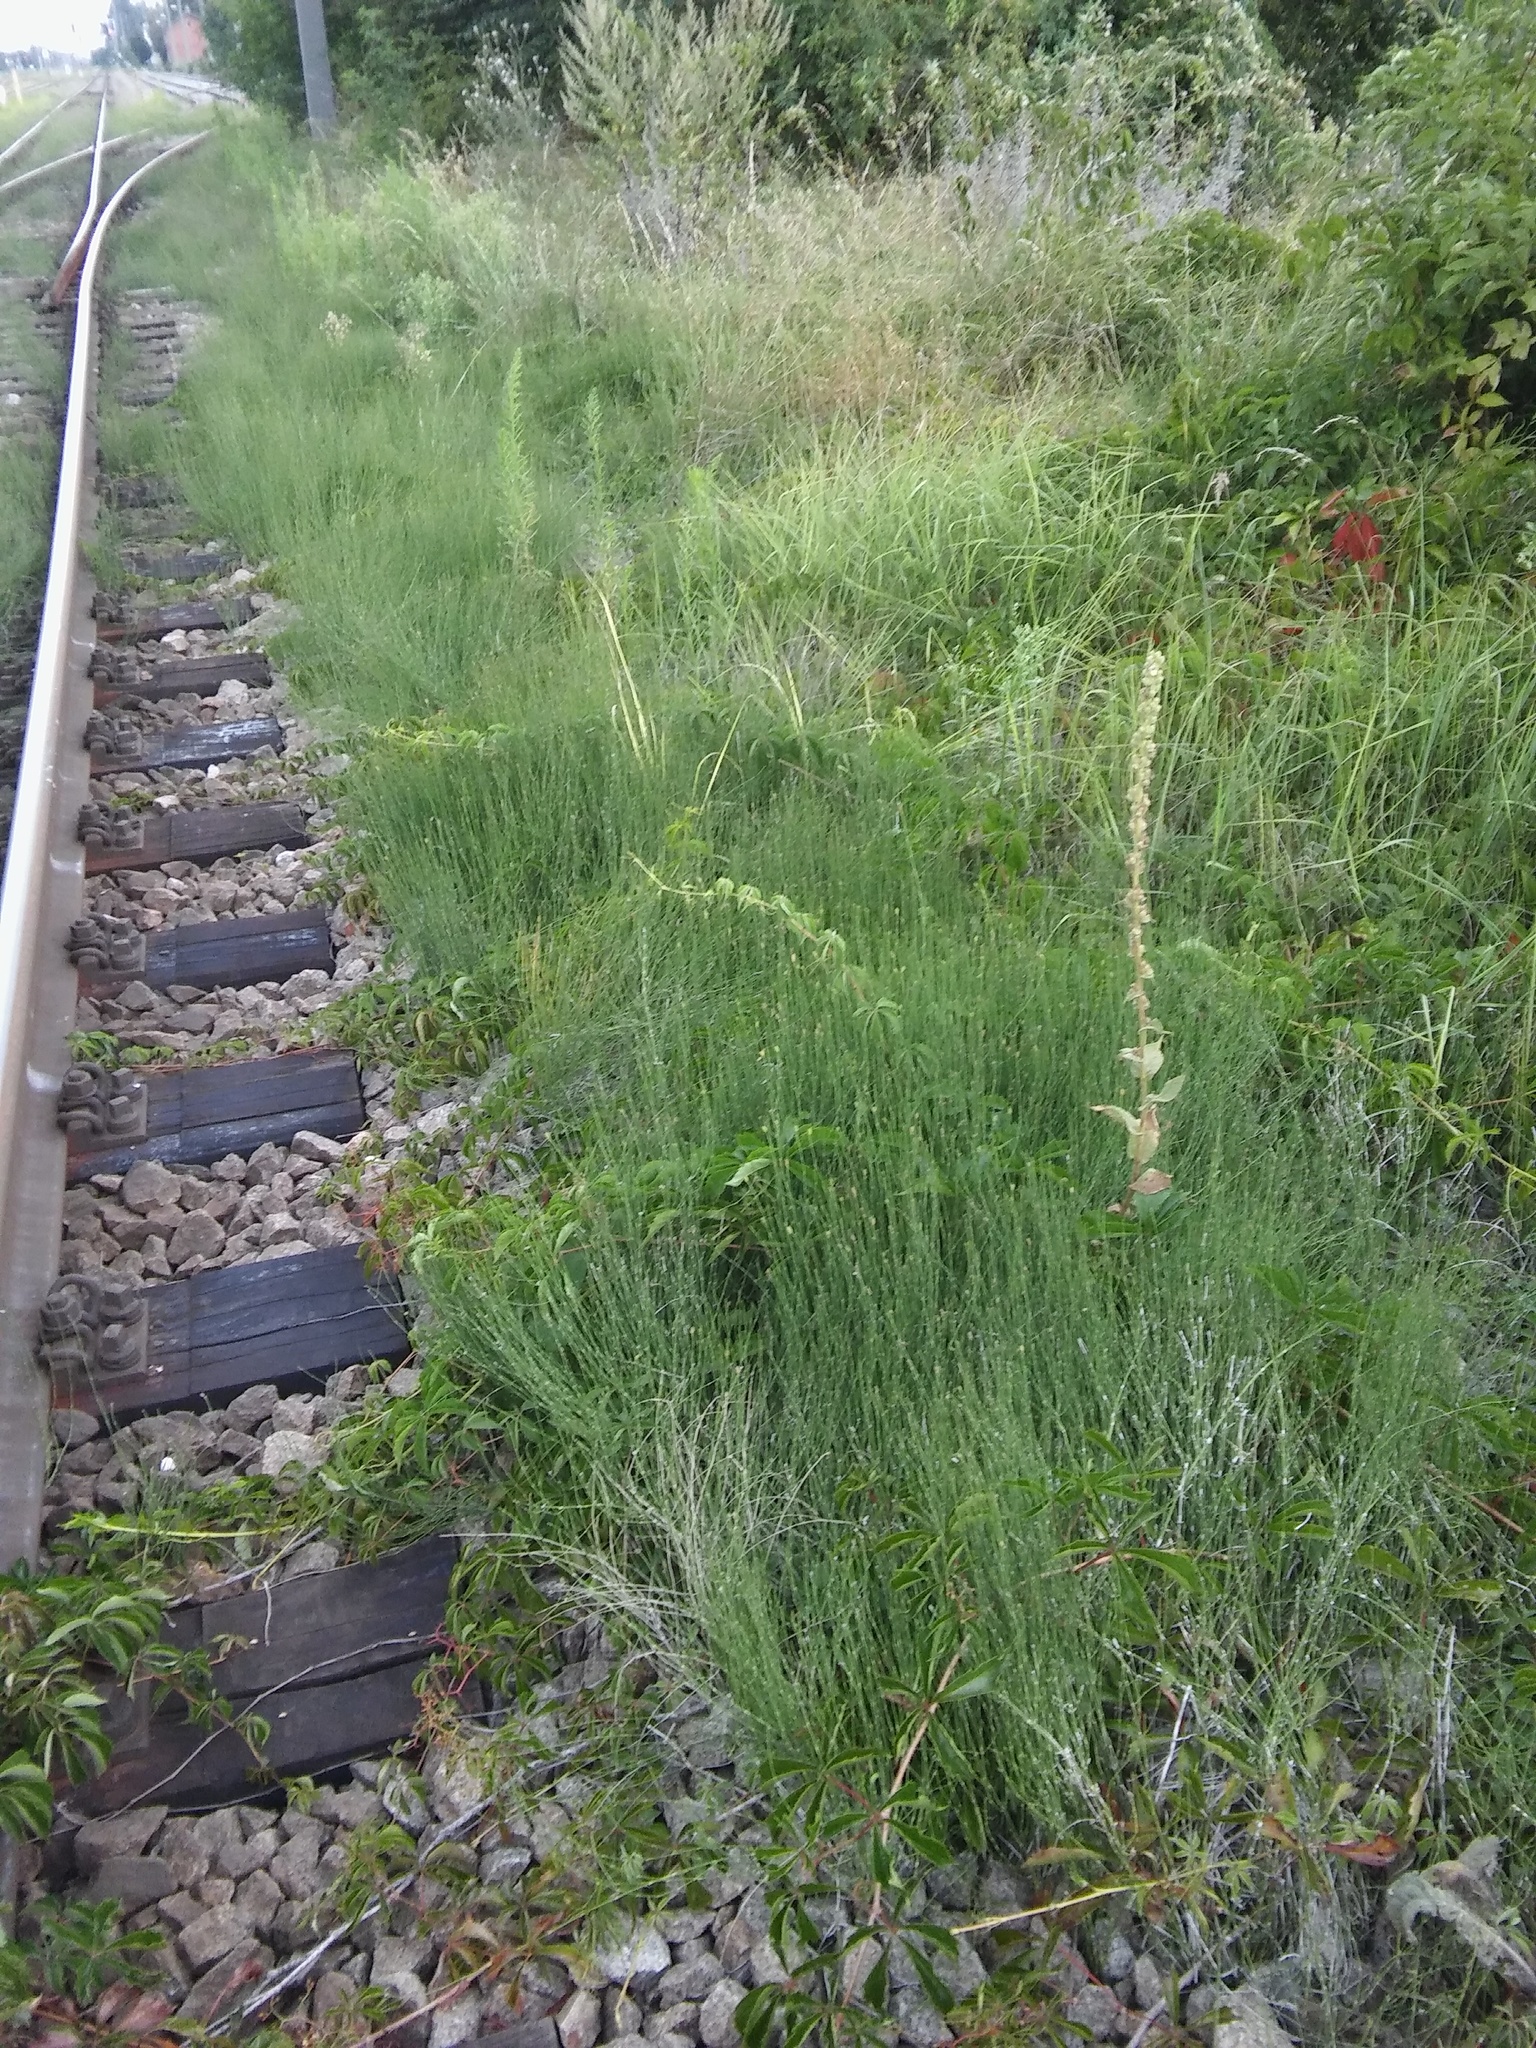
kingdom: Plantae
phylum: Tracheophyta
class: Polypodiopsida
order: Equisetales
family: Equisetaceae
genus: Equisetum
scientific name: Equisetum ramosissimum
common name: Branched horsetail
